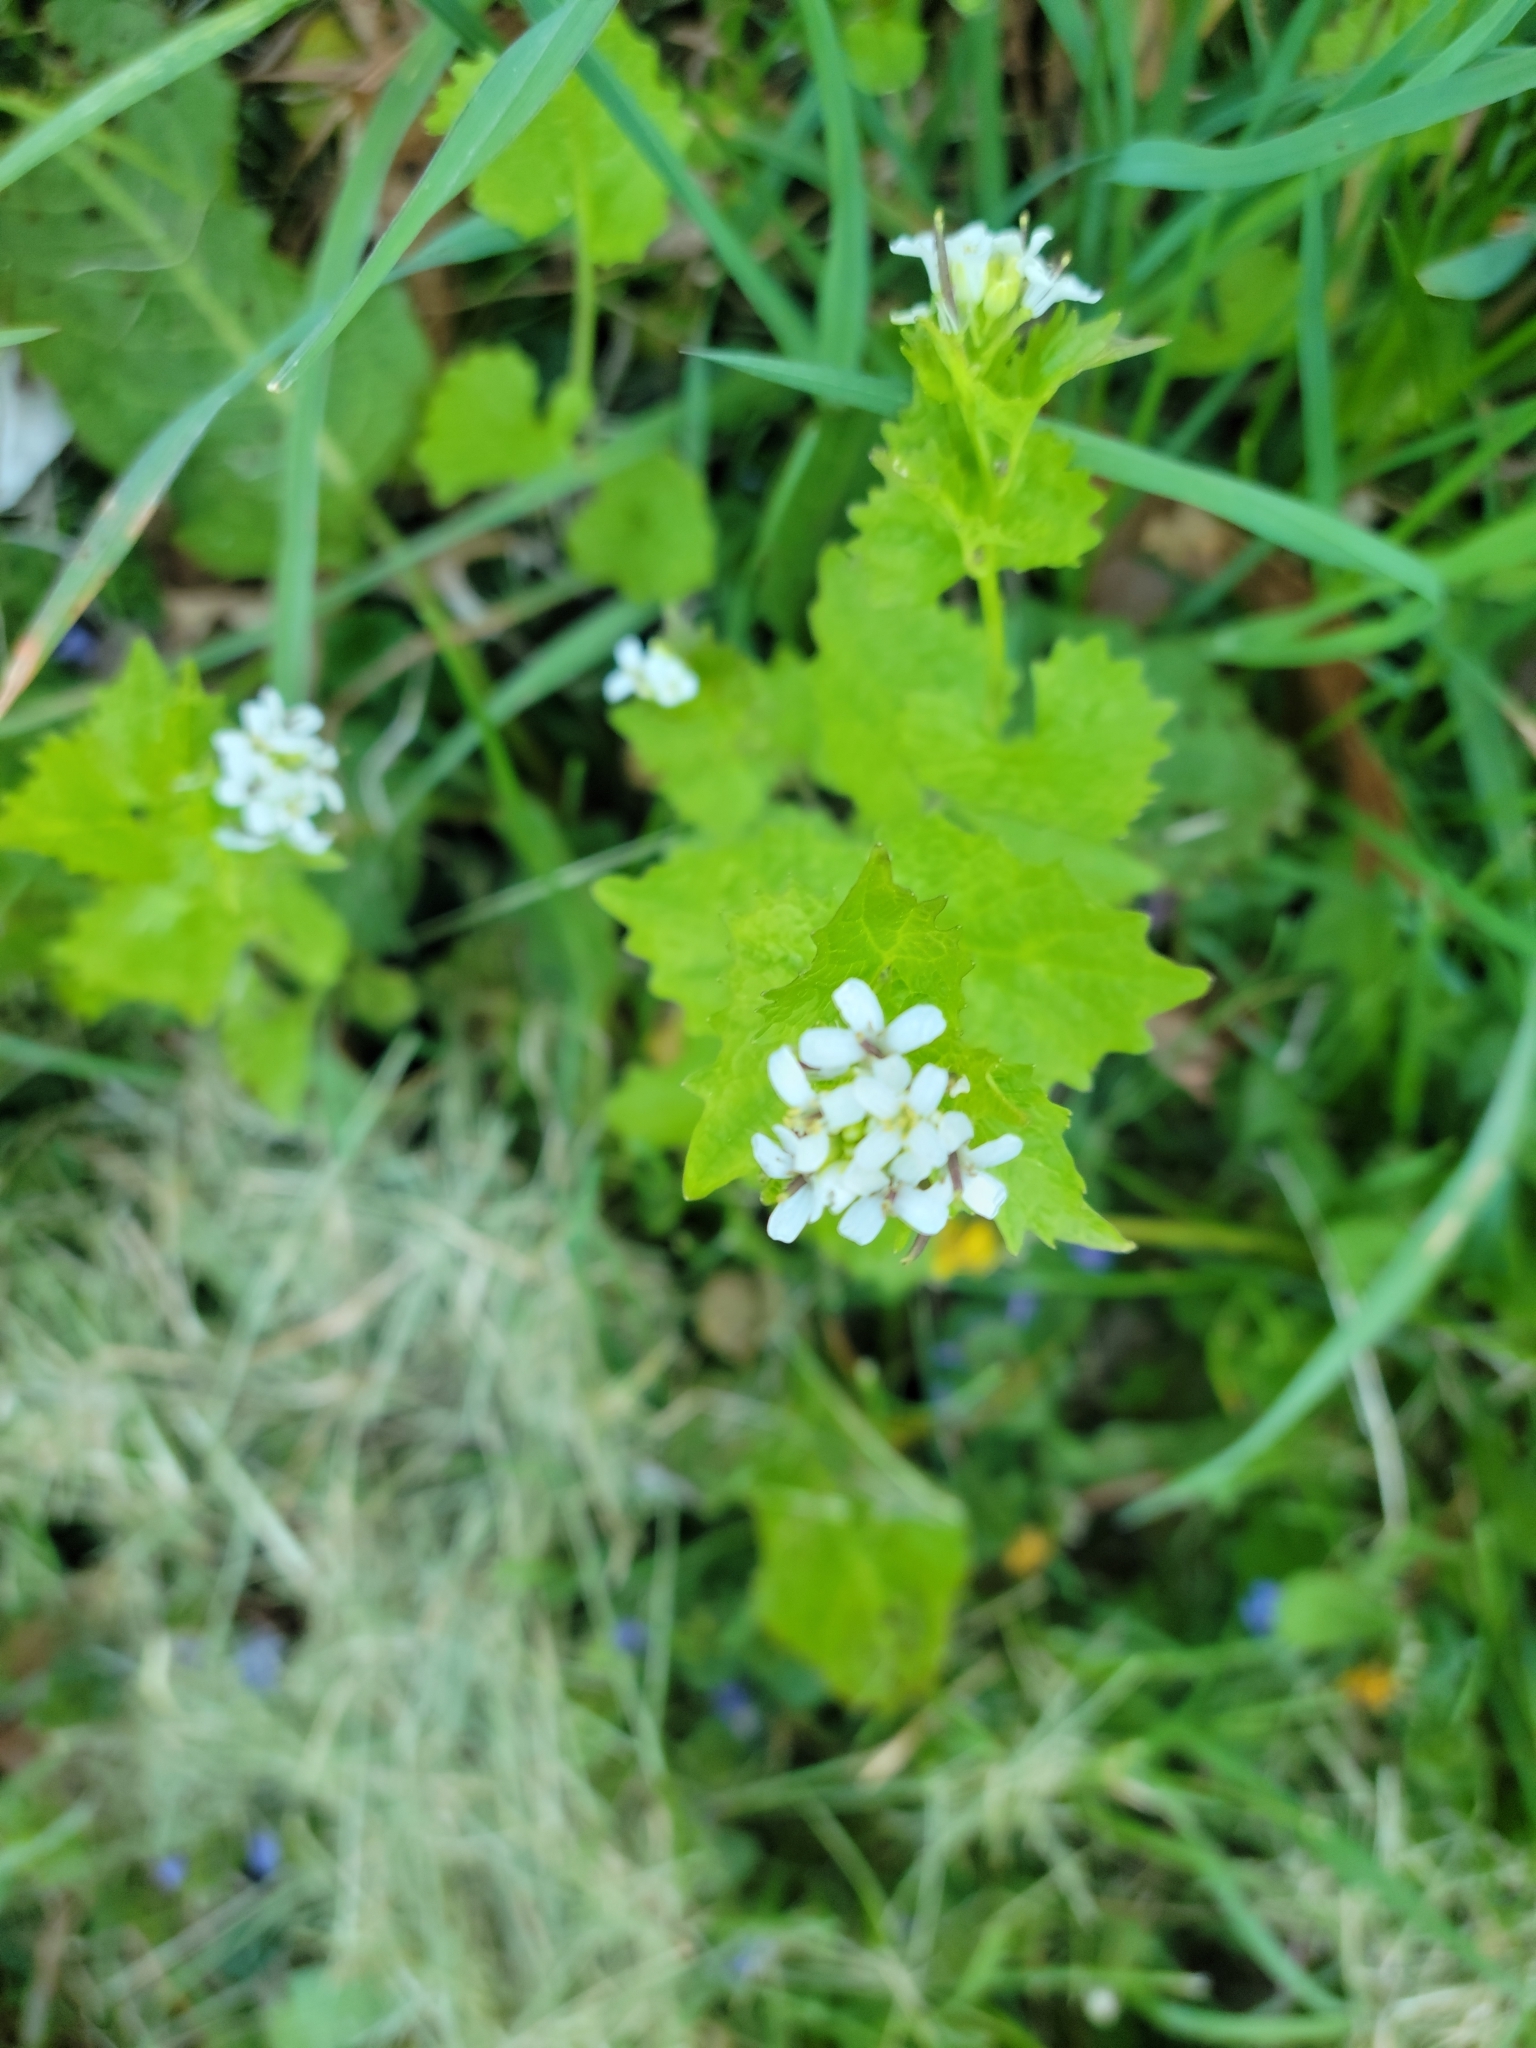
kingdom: Plantae
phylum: Tracheophyta
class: Magnoliopsida
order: Brassicales
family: Brassicaceae
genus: Alliaria
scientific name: Alliaria petiolata
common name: Garlic mustard
